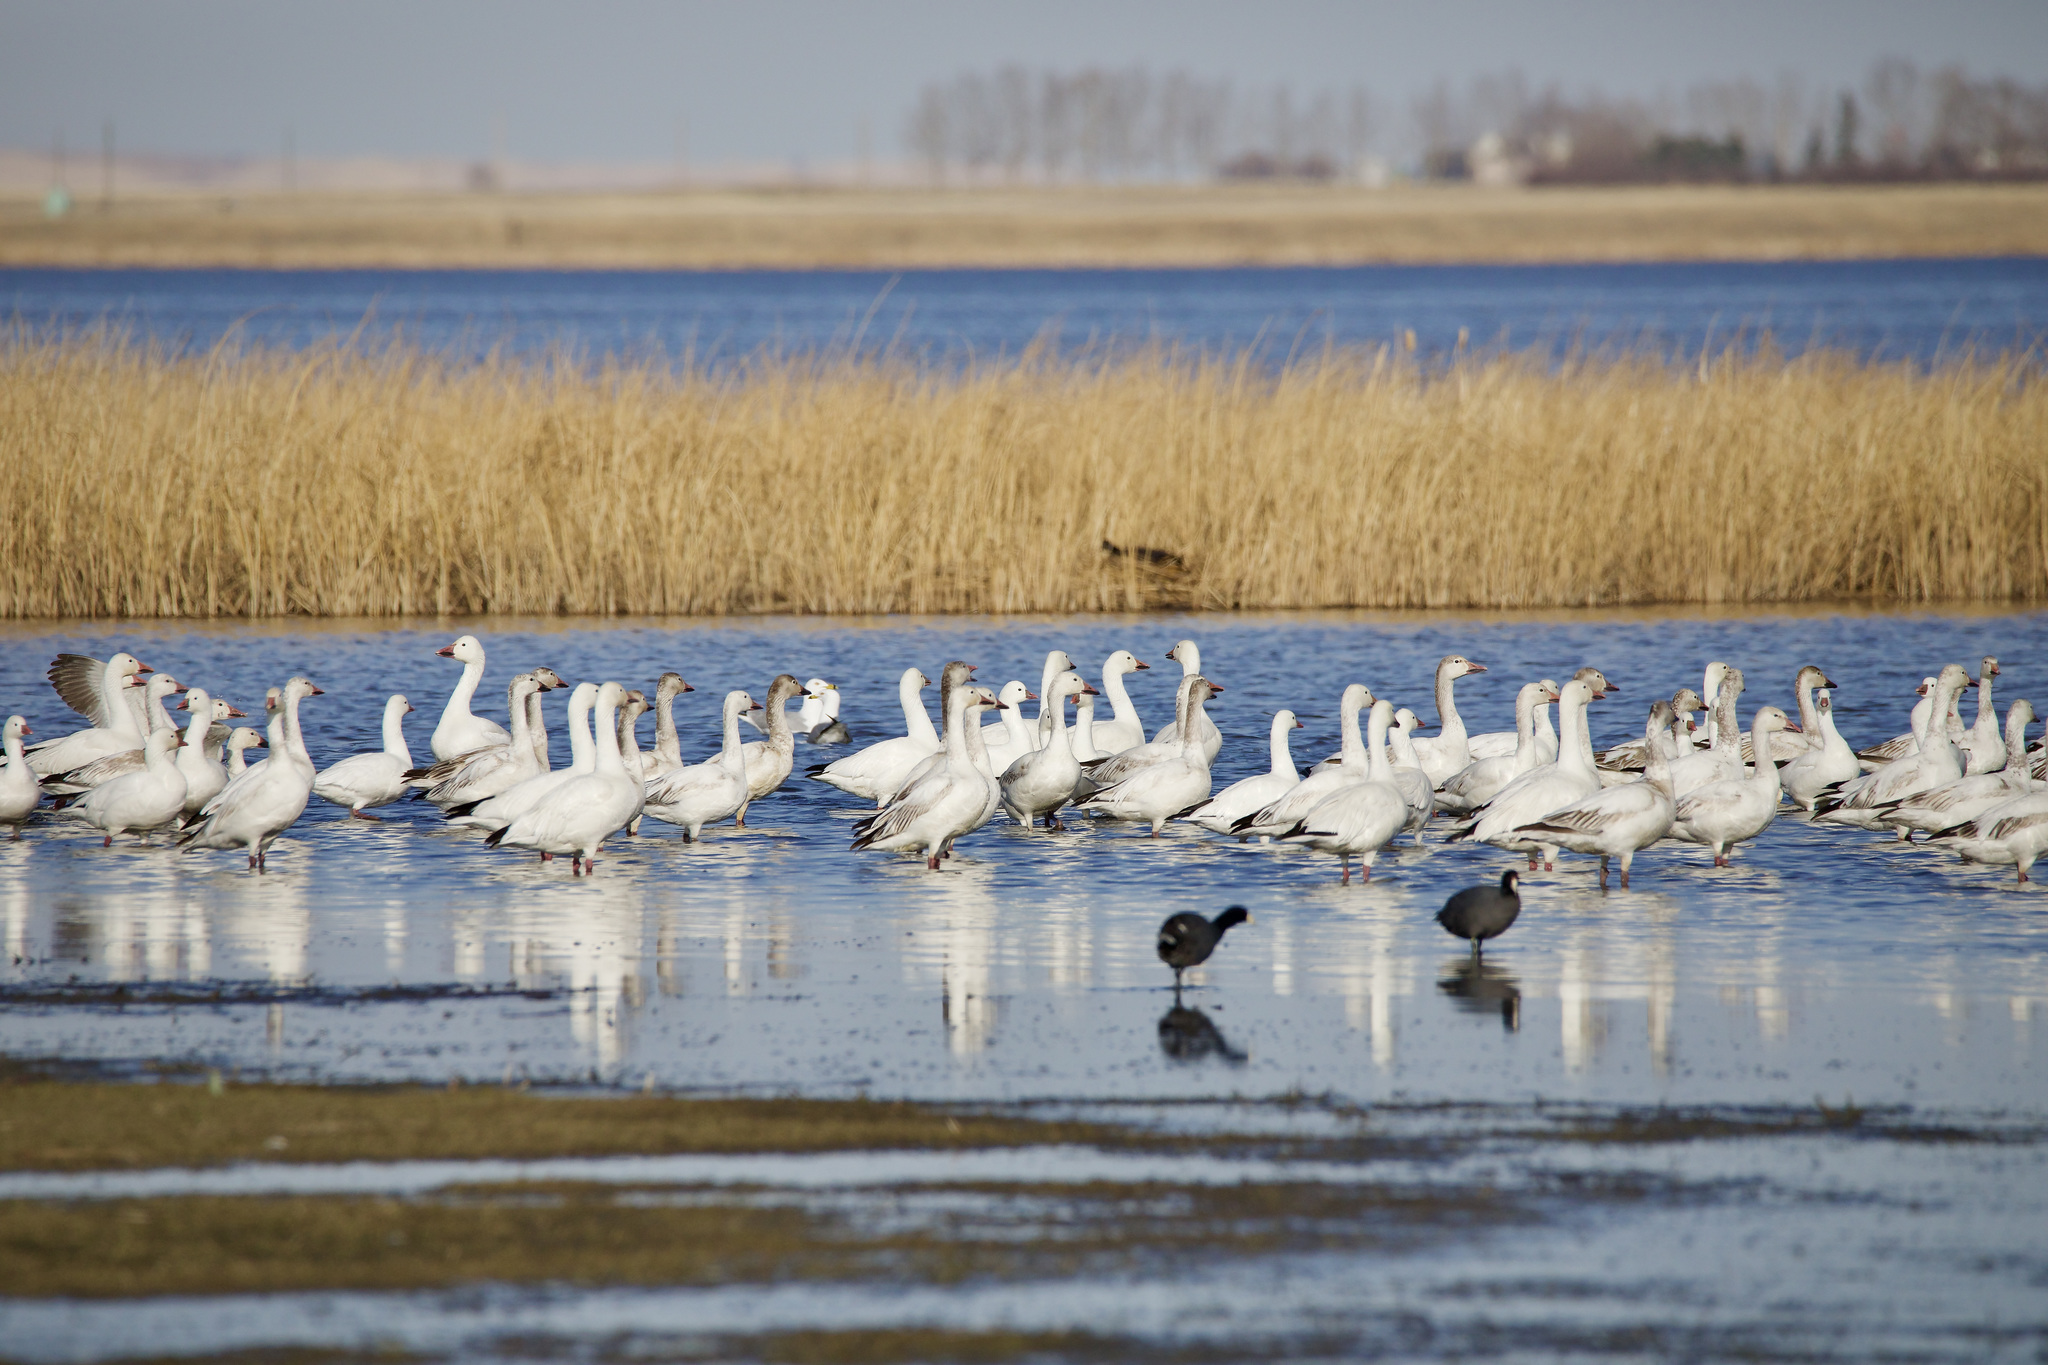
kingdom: Animalia
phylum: Chordata
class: Aves
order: Anseriformes
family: Anatidae
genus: Anser
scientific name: Anser rossii
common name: Ross's goose
